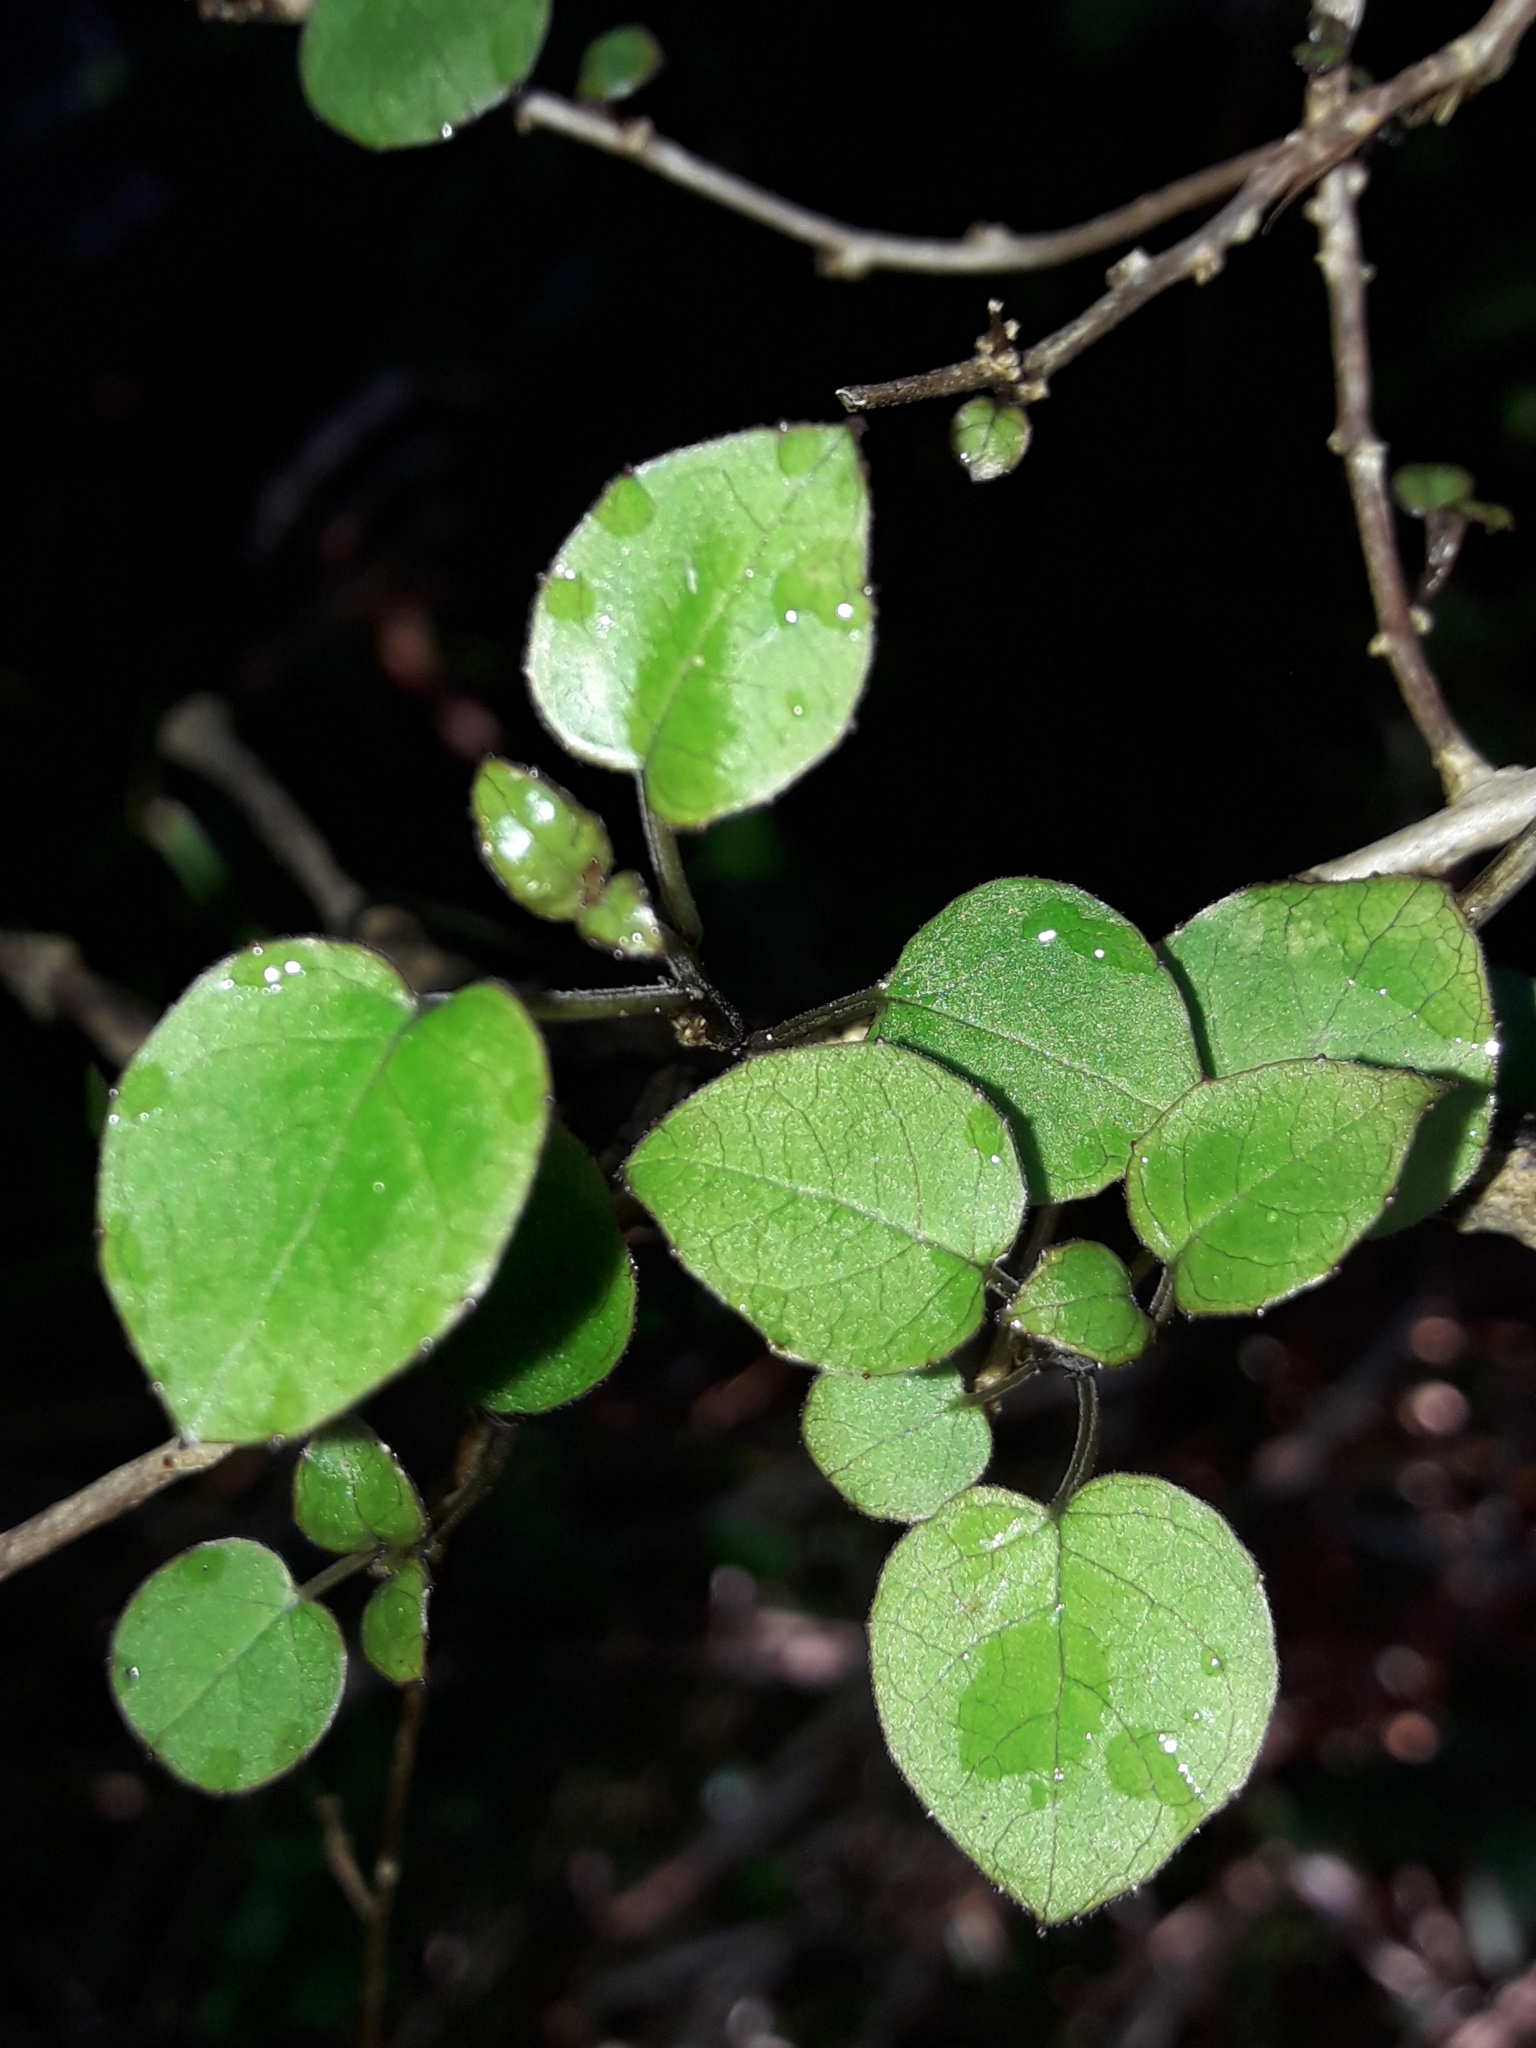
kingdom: Plantae
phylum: Tracheophyta
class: Magnoliopsida
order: Myrtales
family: Onagraceae
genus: Fuchsia
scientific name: Fuchsia perscandens
